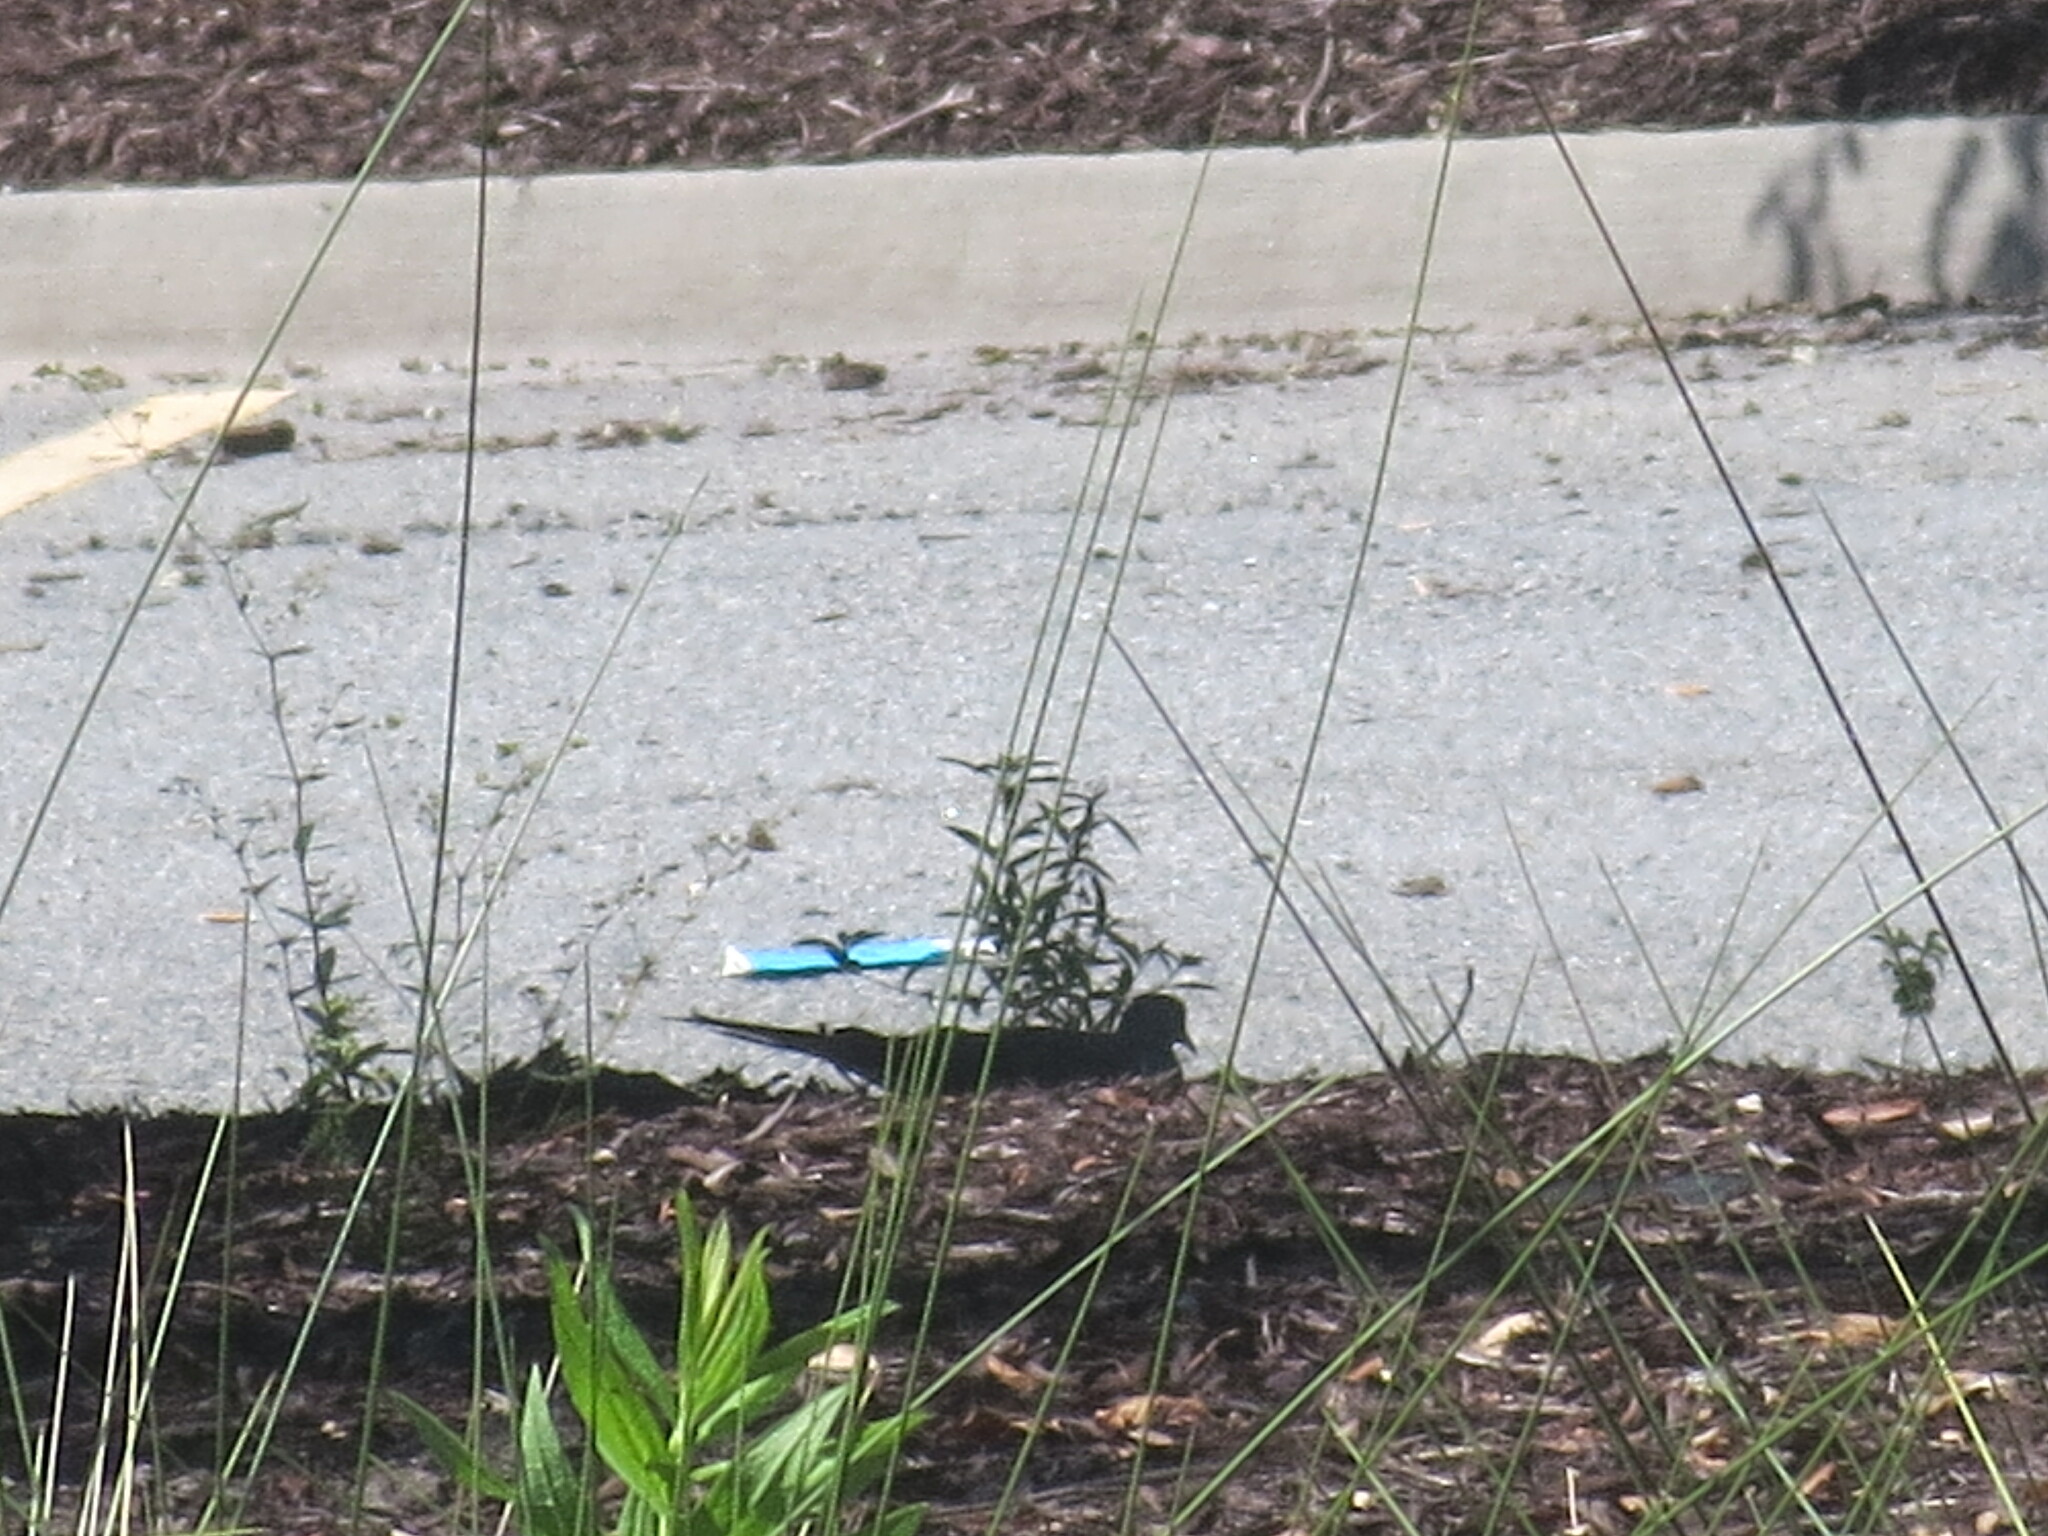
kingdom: Animalia
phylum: Chordata
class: Aves
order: Columbiformes
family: Columbidae
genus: Zenaida
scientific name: Zenaida macroura
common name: Mourning dove
